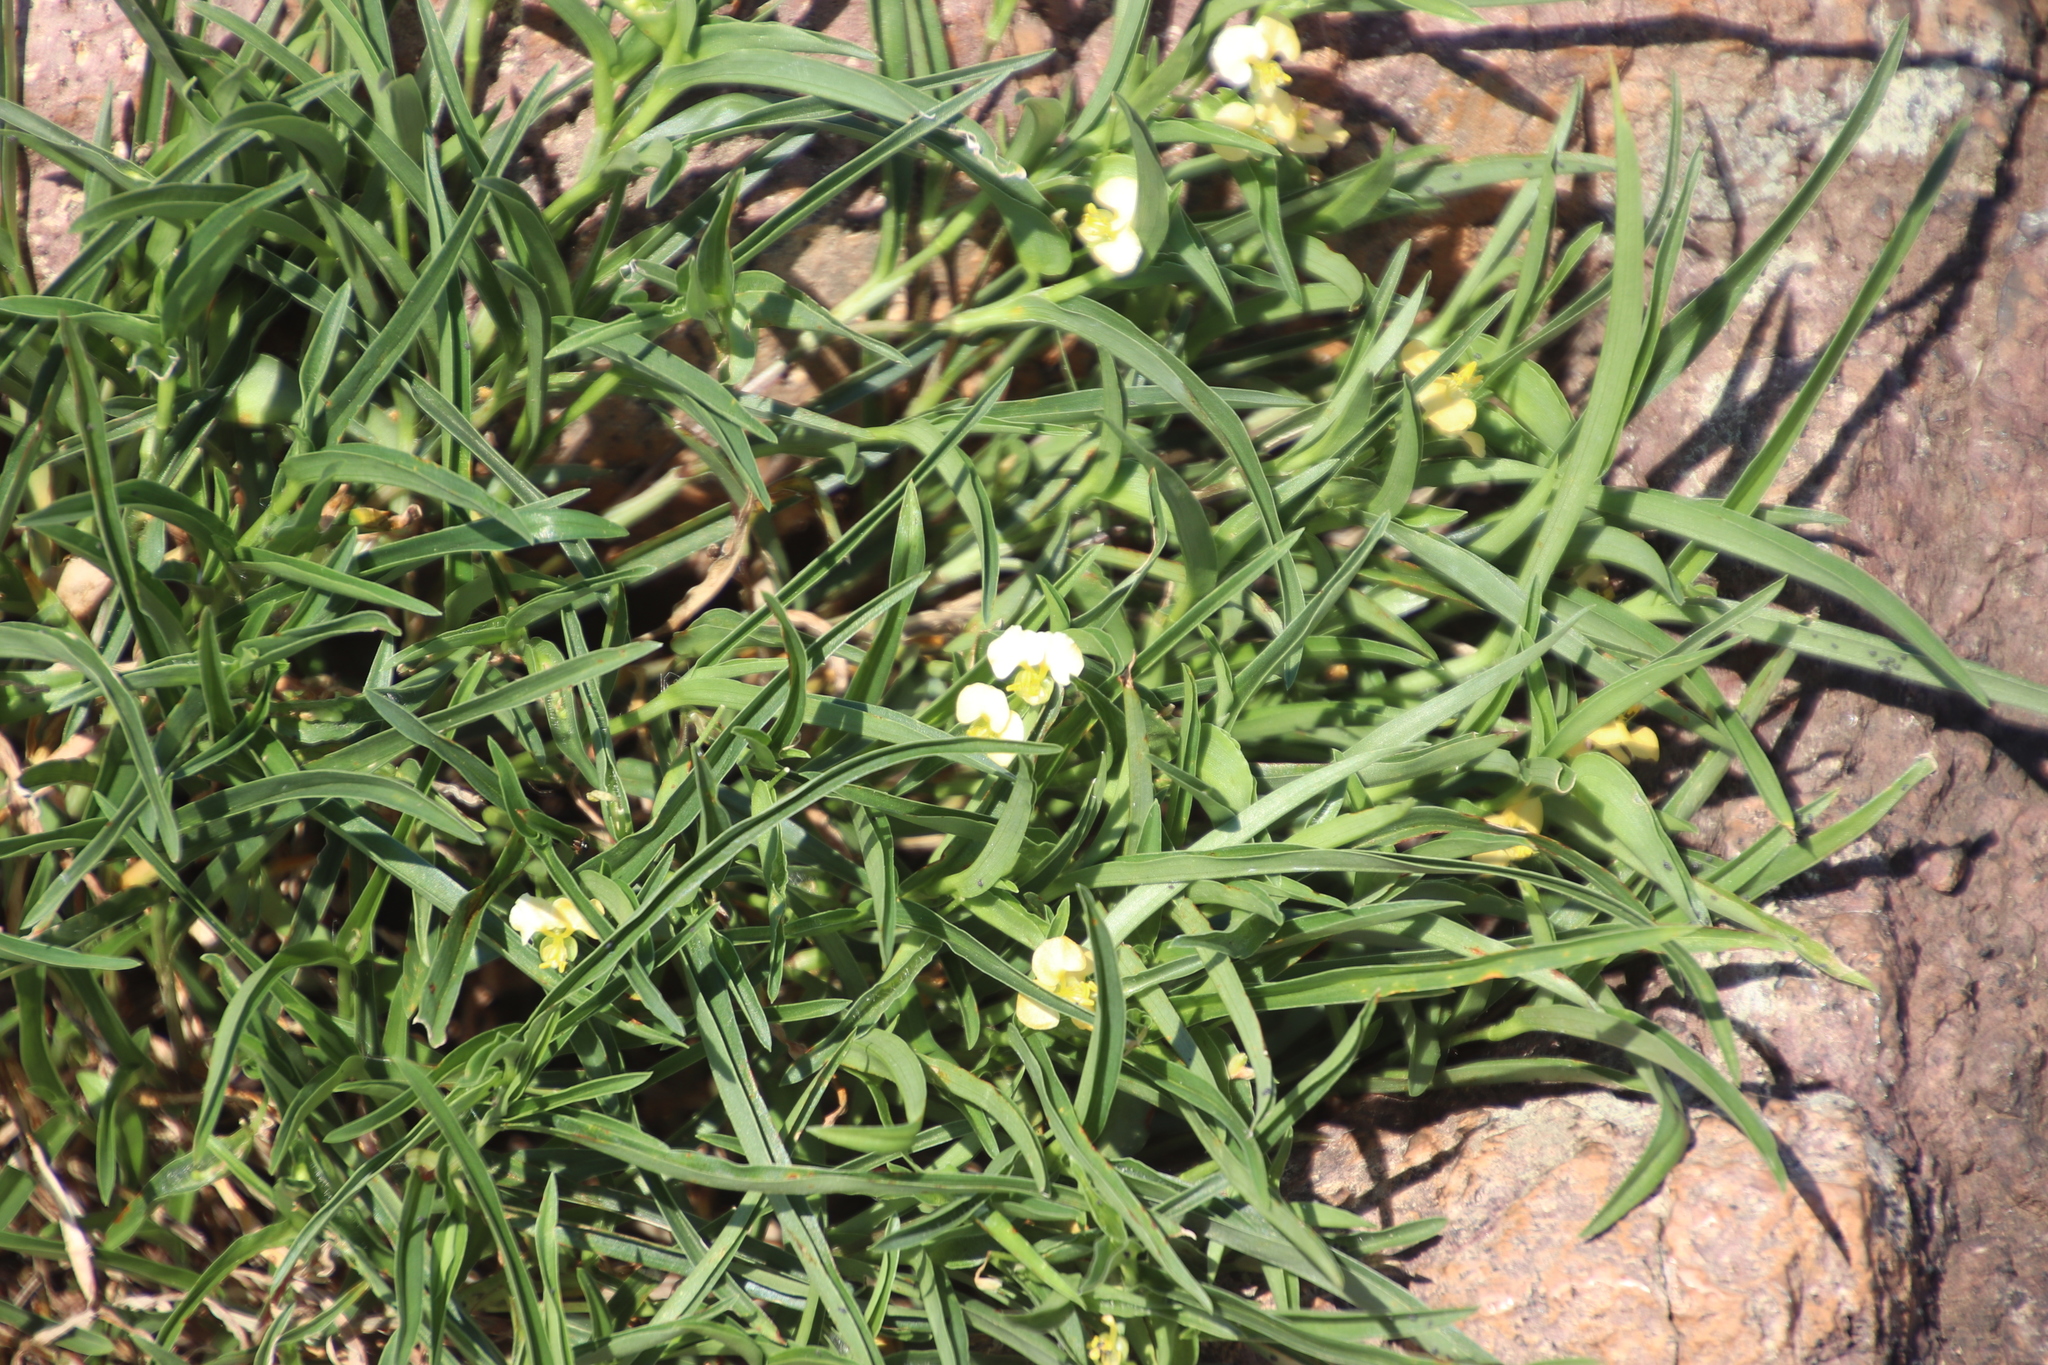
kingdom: Plantae
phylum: Tracheophyta
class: Liliopsida
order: Commelinales
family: Commelinaceae
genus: Commelina
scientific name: Commelina africana
